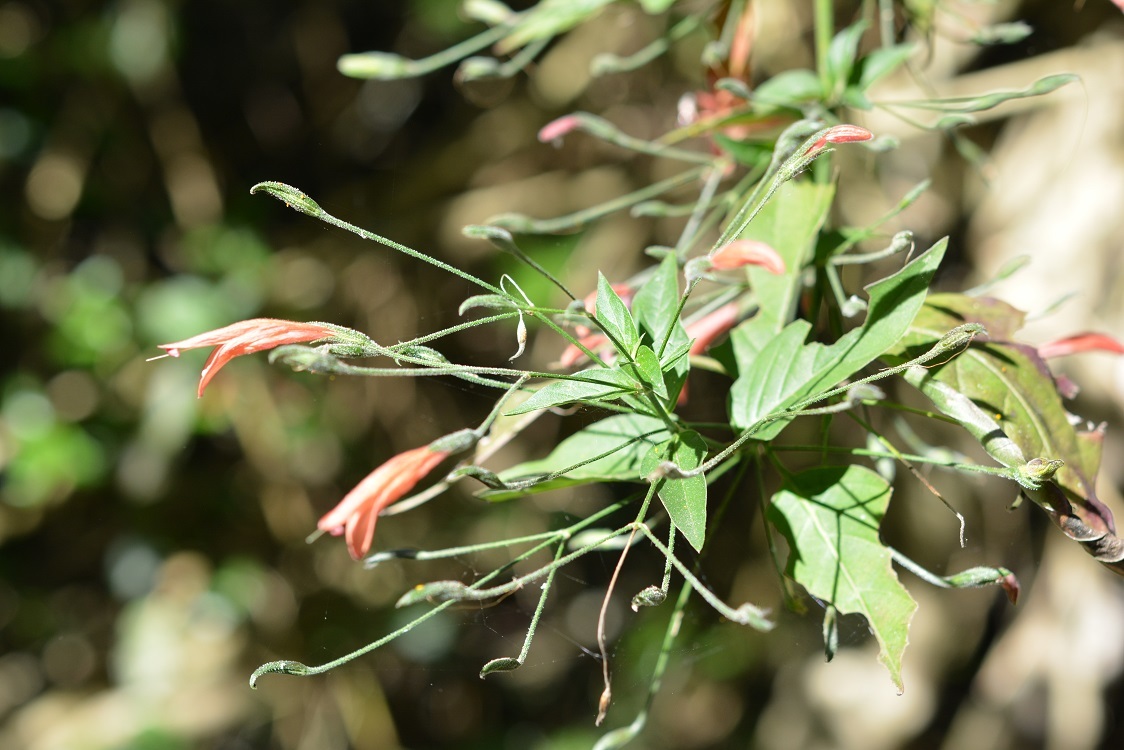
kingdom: Plantae
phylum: Tracheophyta
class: Magnoliopsida
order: Lamiales
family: Acanthaceae
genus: Dicliptera
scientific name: Dicliptera sciadephora
